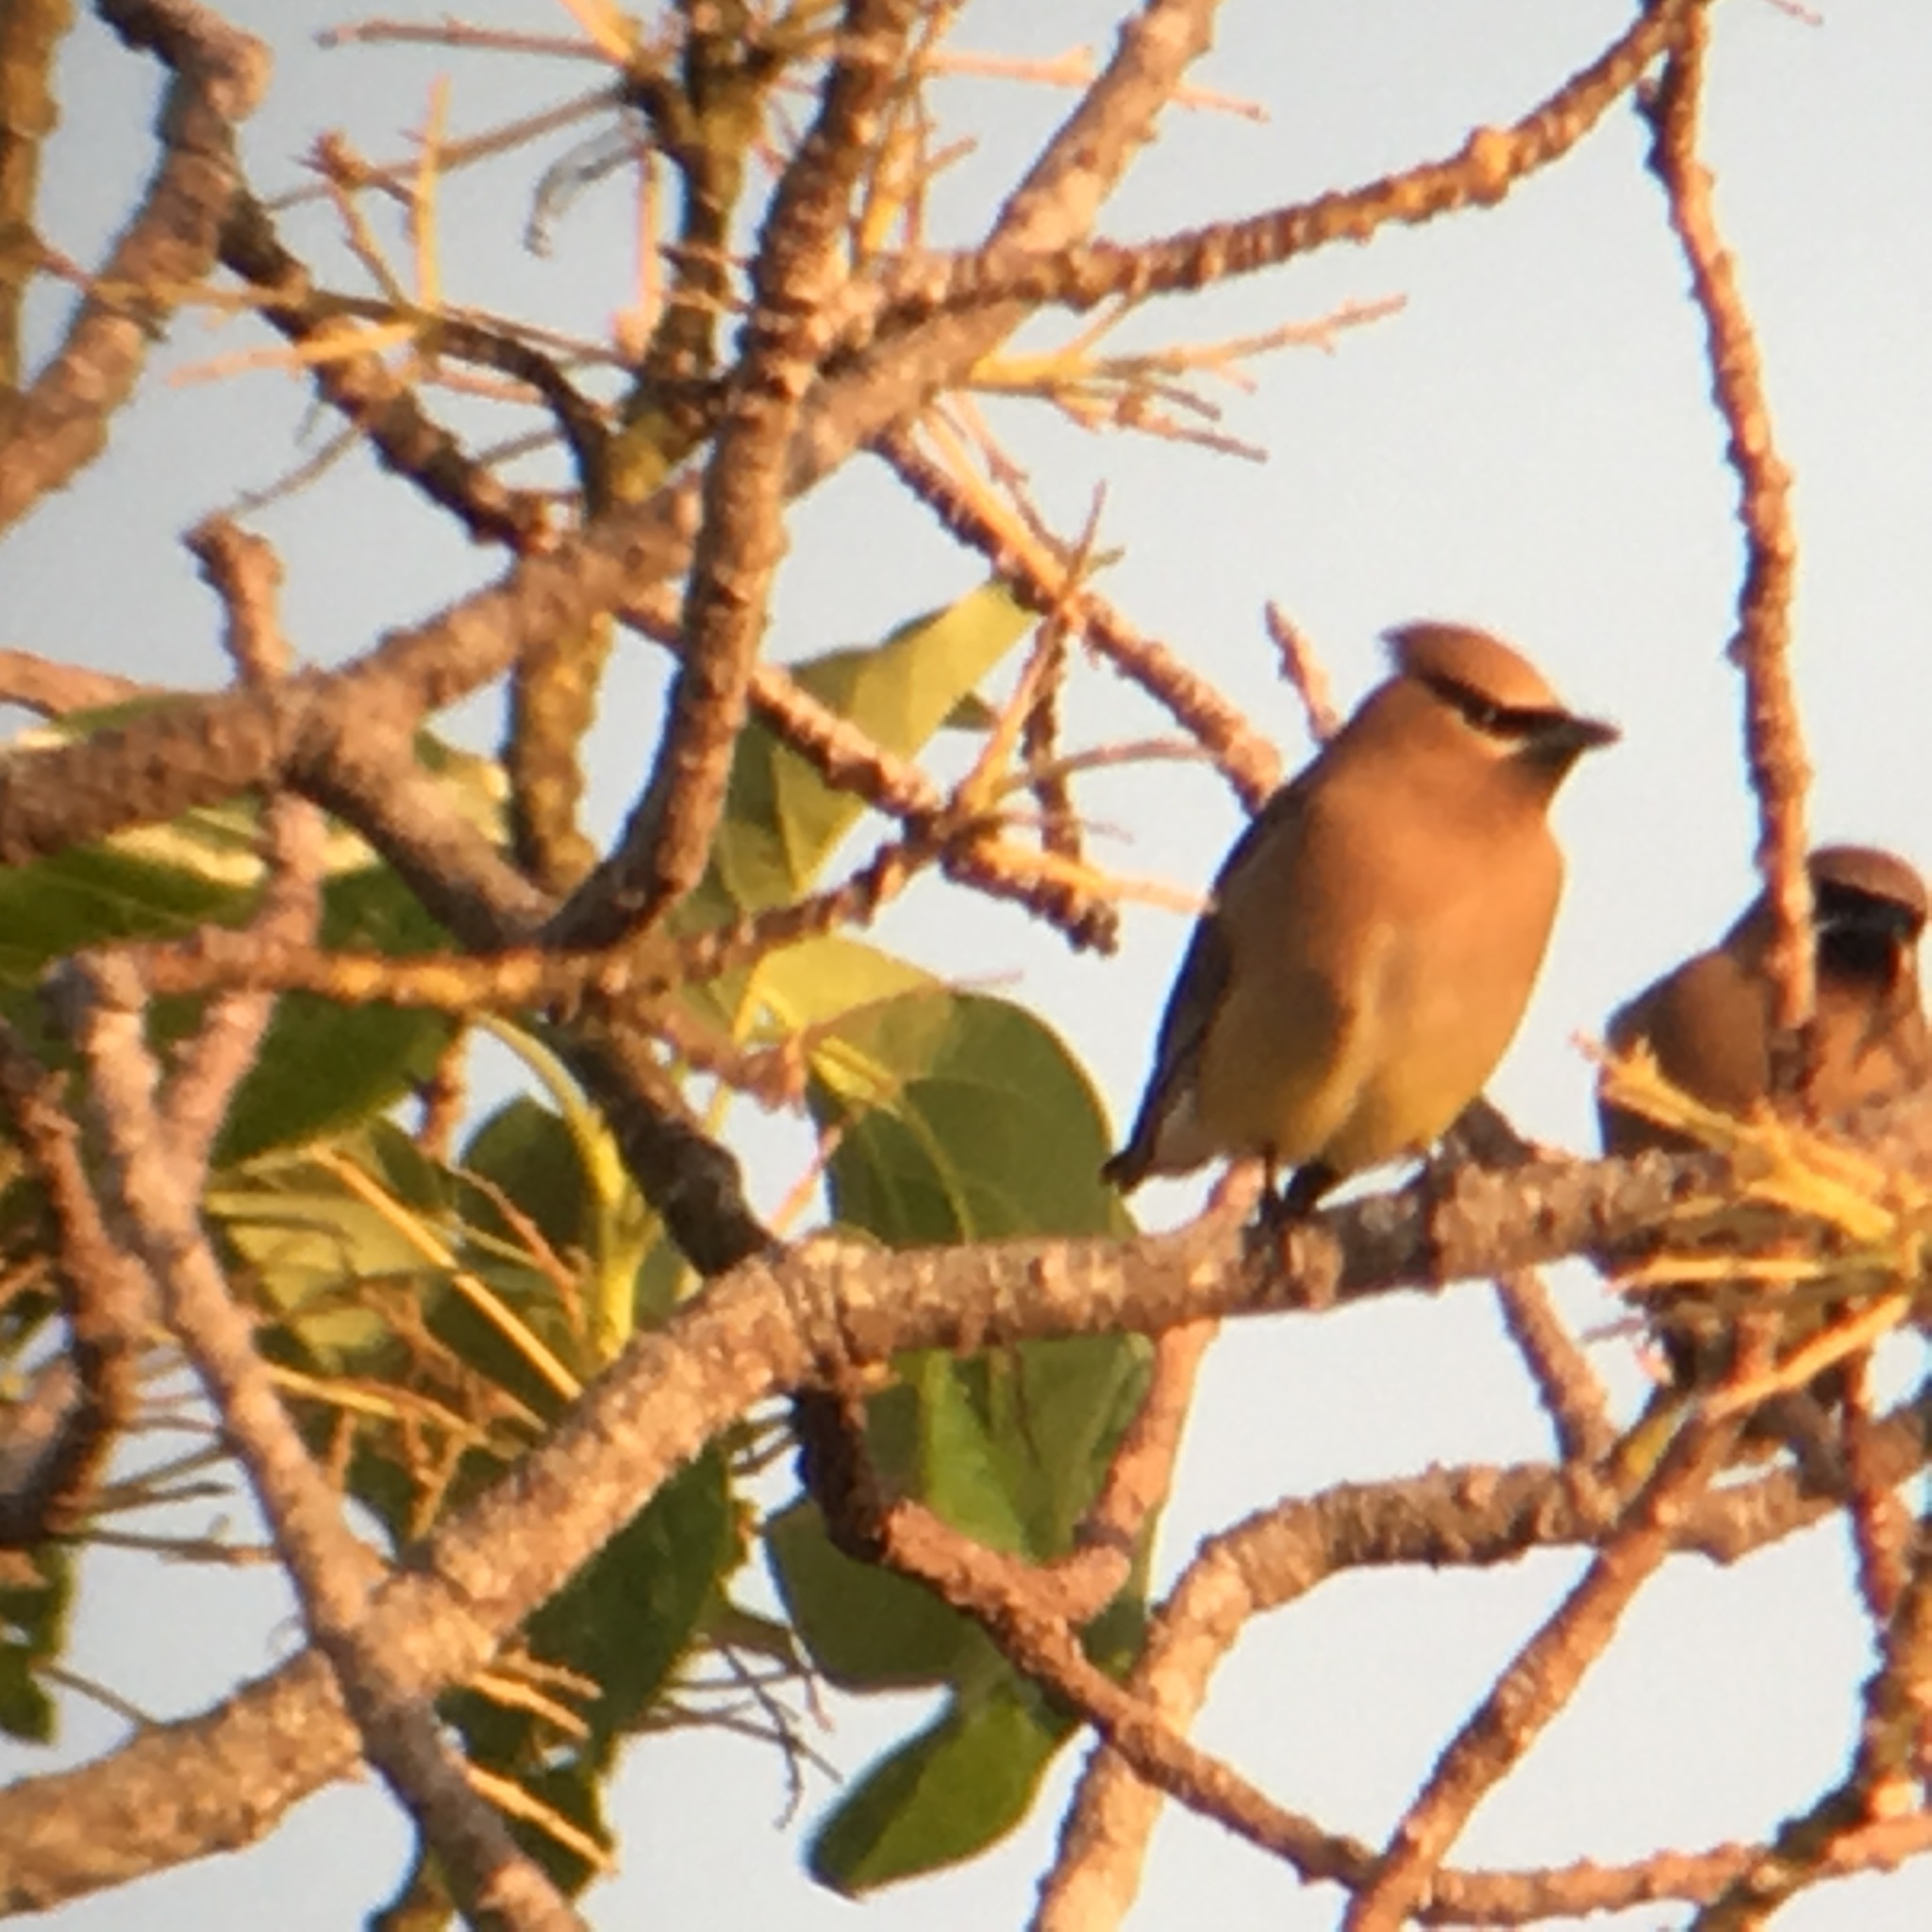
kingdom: Animalia
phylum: Chordata
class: Aves
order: Passeriformes
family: Bombycillidae
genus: Bombycilla
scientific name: Bombycilla cedrorum
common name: Cedar waxwing
